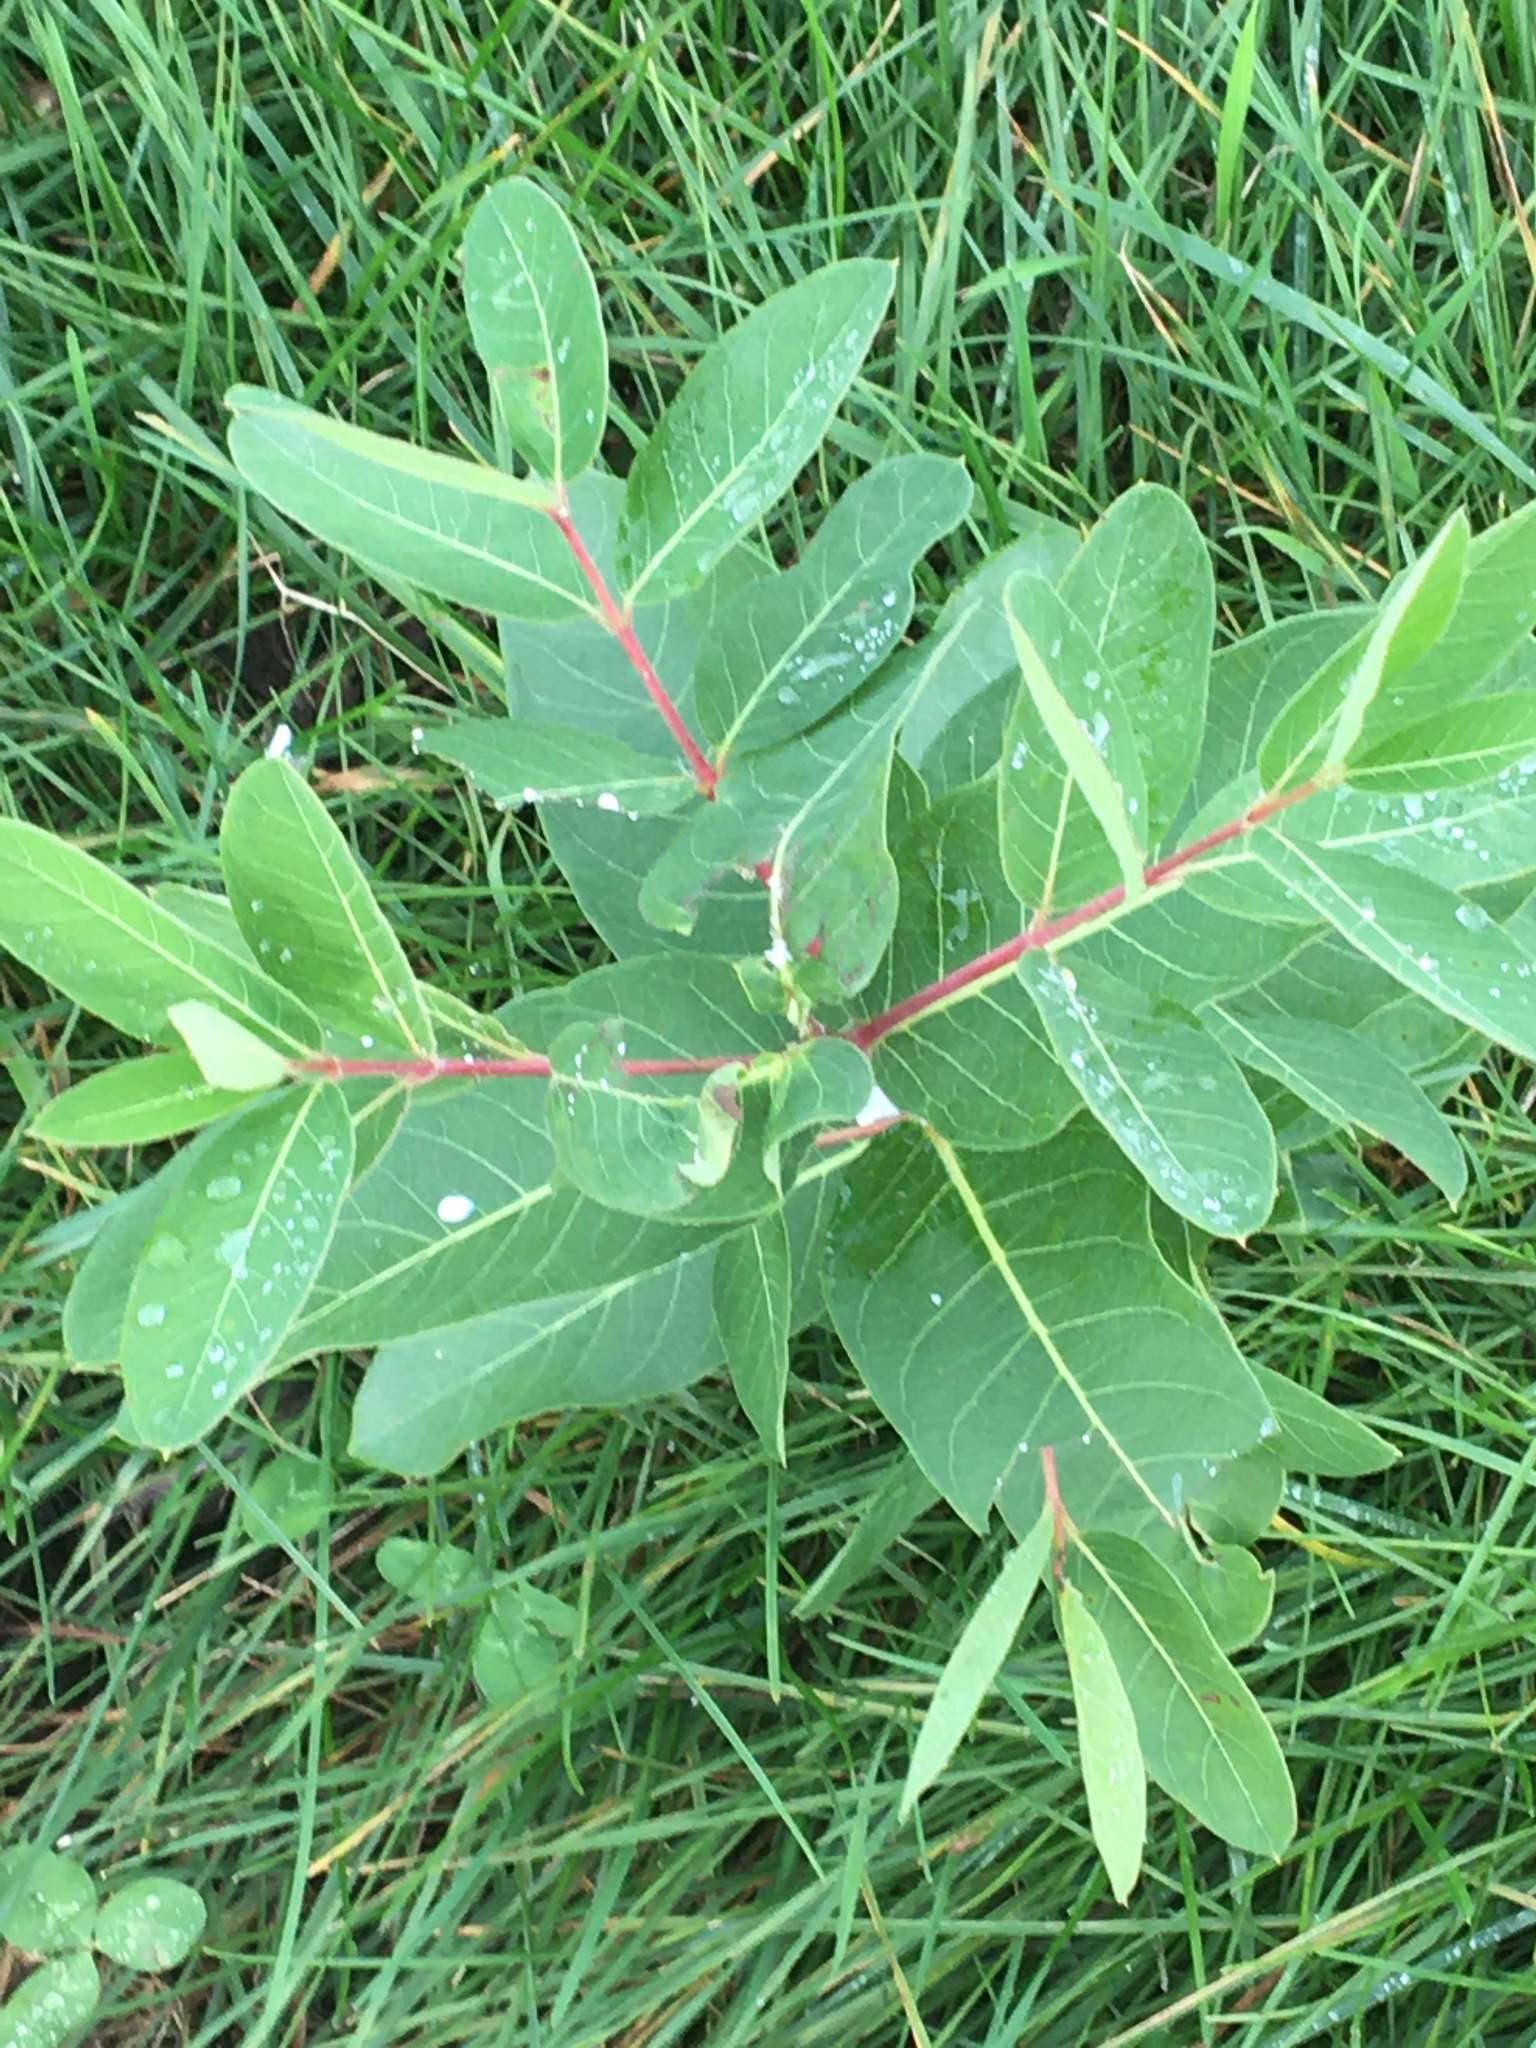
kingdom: Plantae
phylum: Tracheophyta
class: Magnoliopsida
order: Gentianales
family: Apocynaceae
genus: Apocynum
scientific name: Apocynum cannabinum
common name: Hemp dogbane
